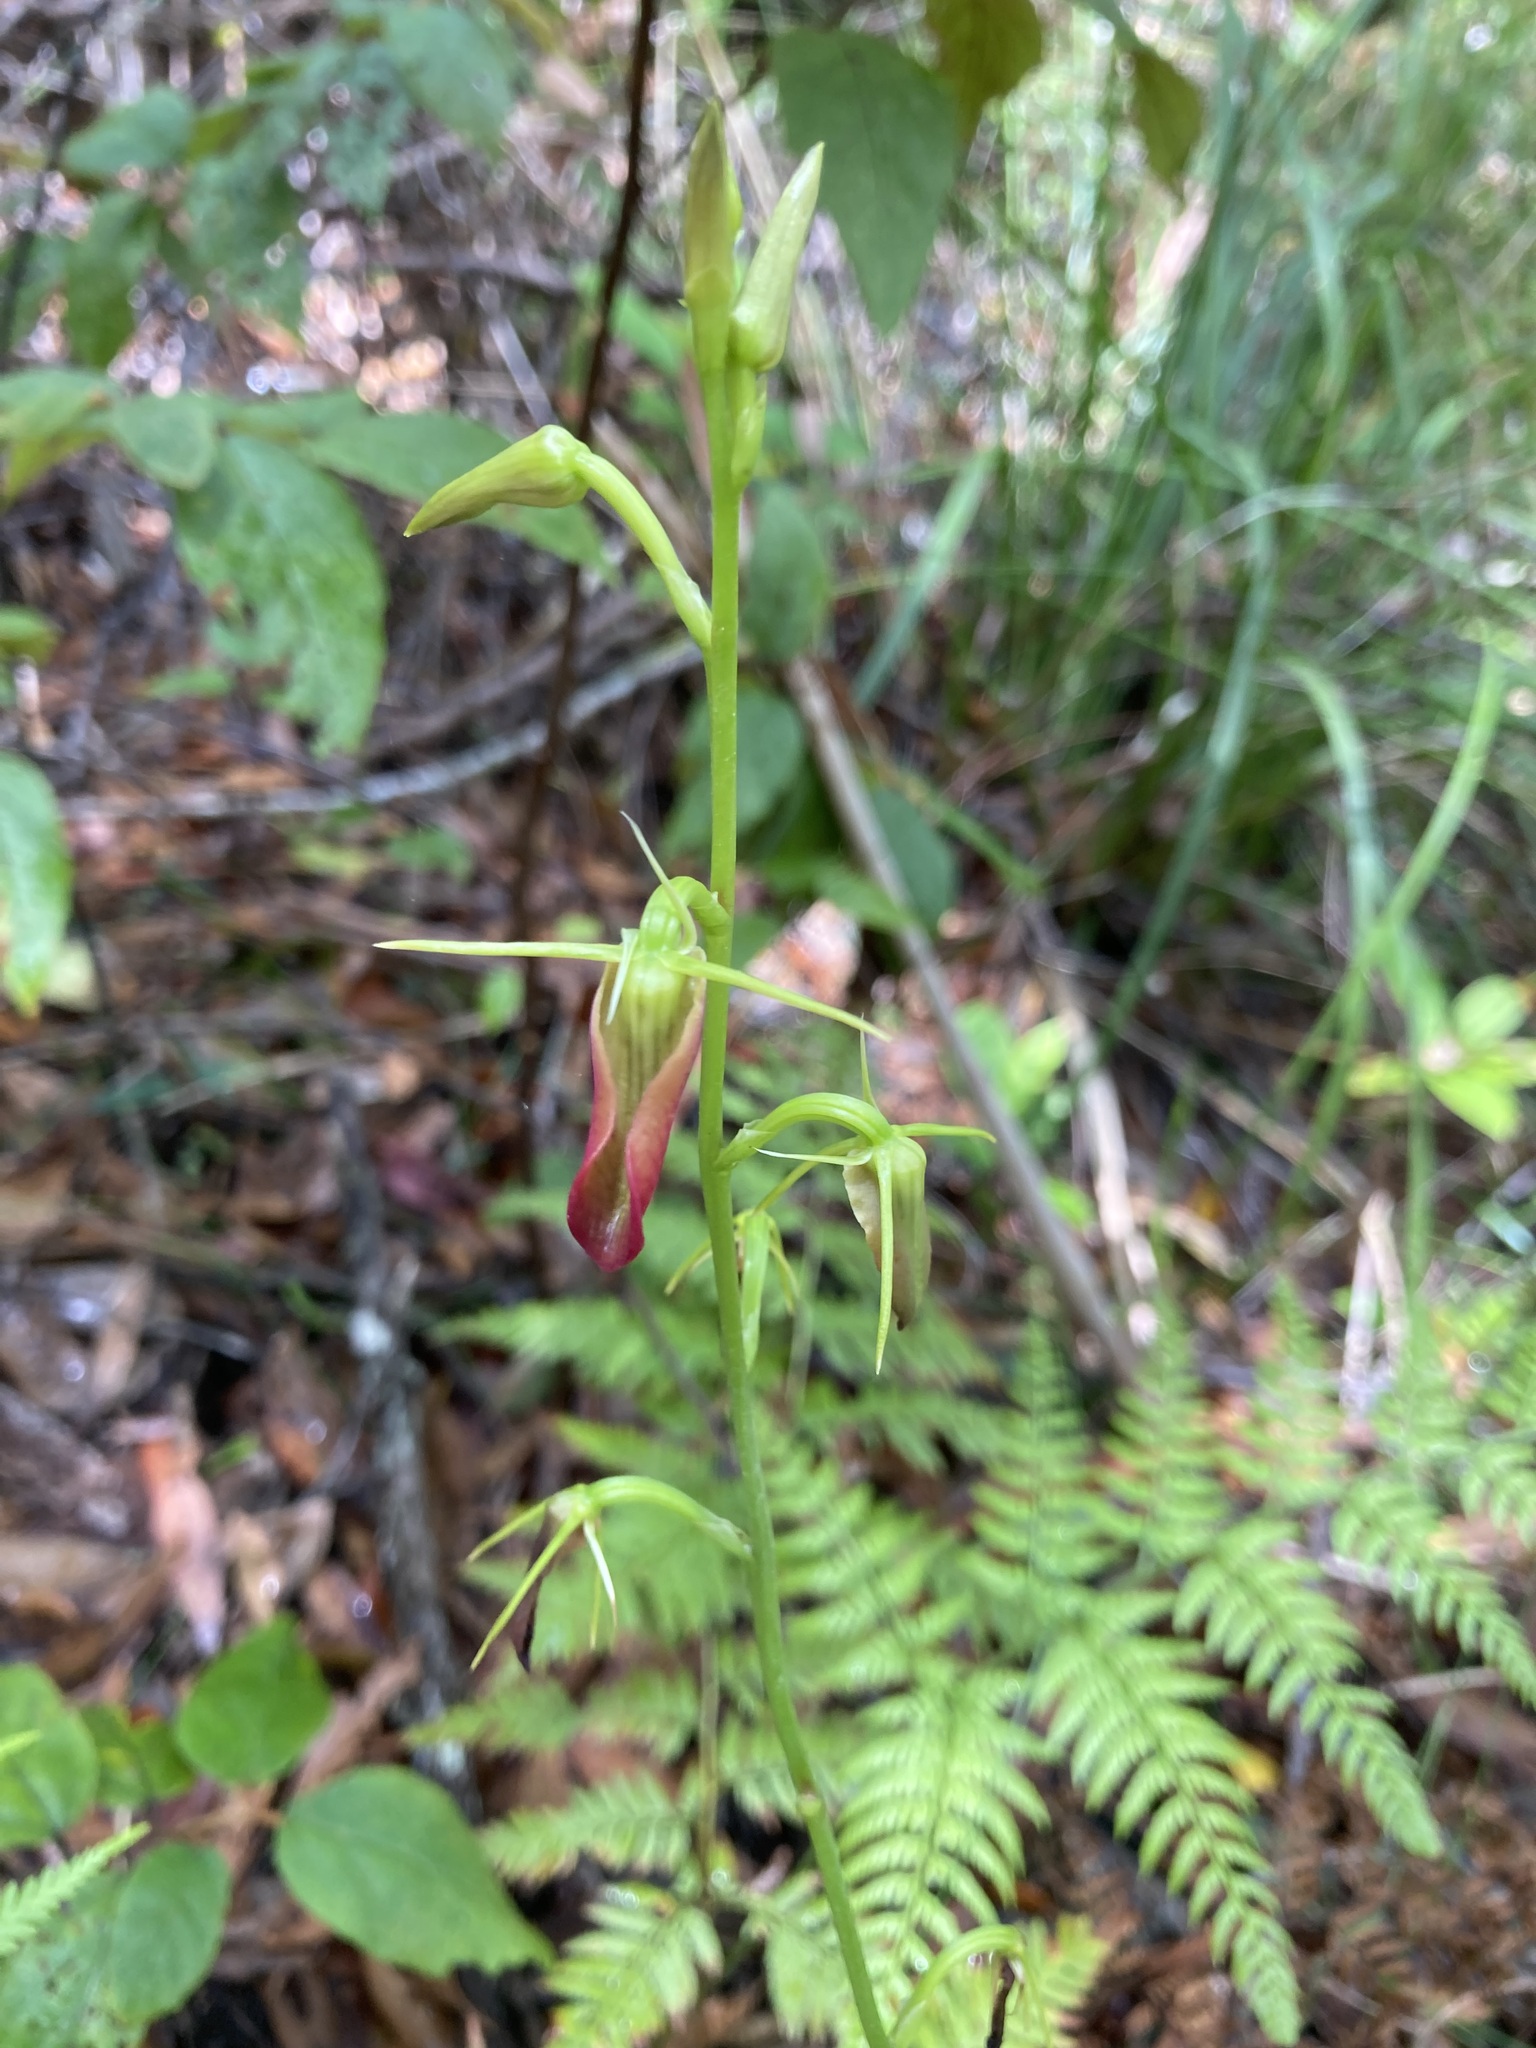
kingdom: Plantae
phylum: Tracheophyta
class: Liliopsida
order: Asparagales
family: Orchidaceae
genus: Cryptostylis
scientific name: Cryptostylis subulata
